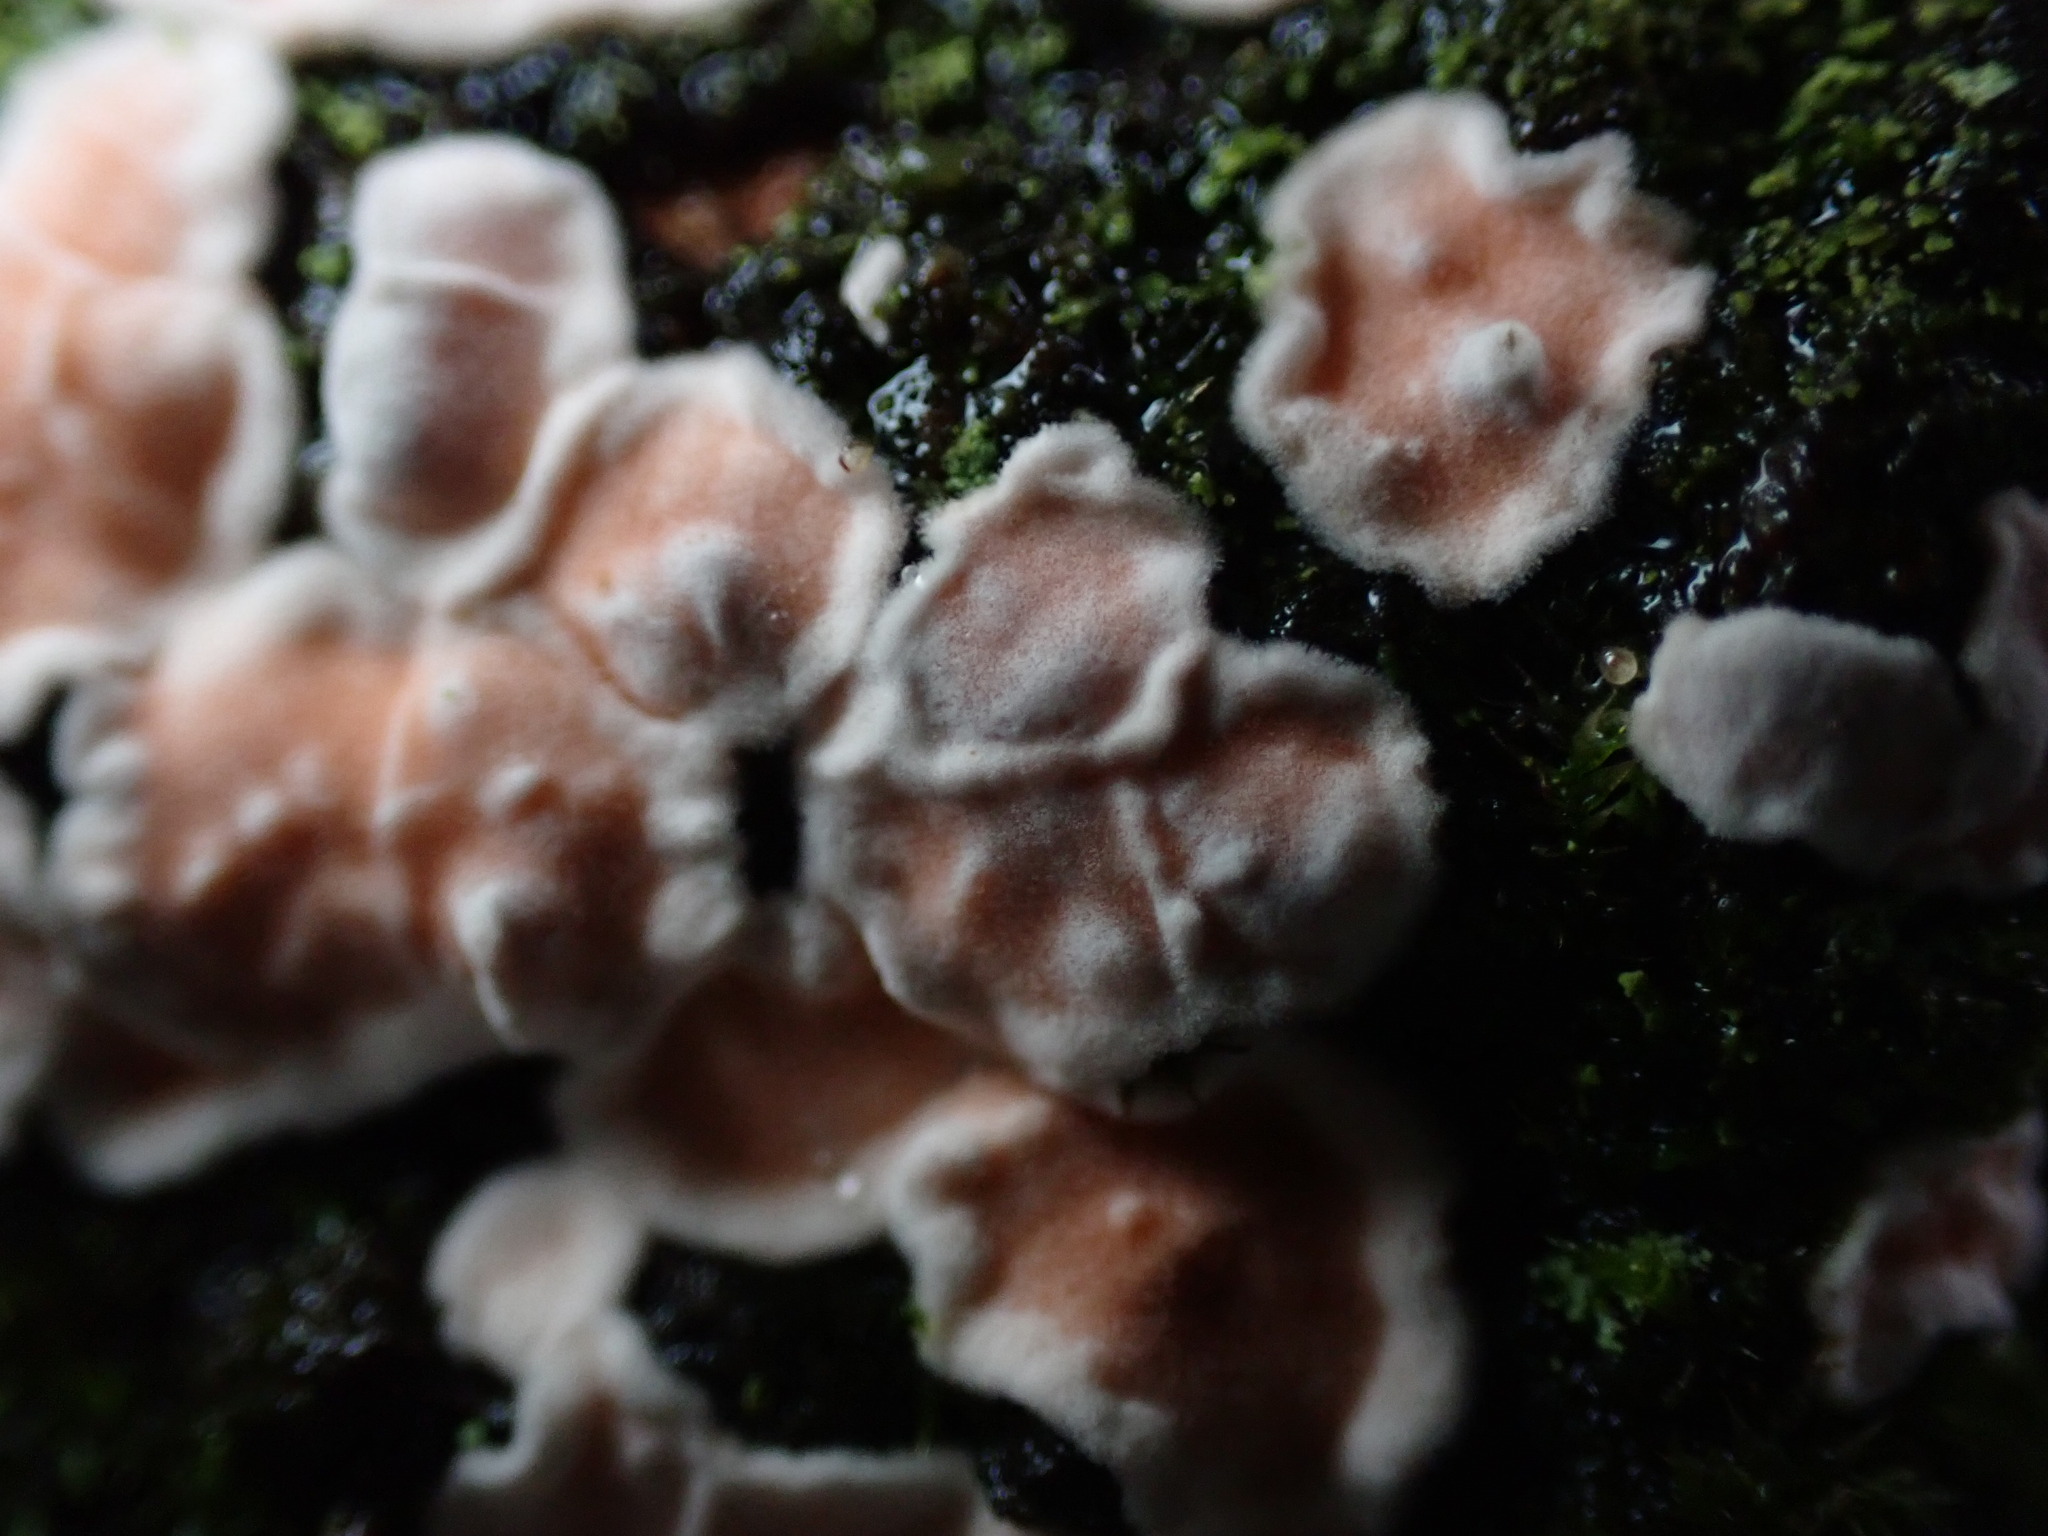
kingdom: Fungi
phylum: Basidiomycota
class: Agaricomycetes
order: Russulales
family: Stereaceae
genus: Gloeosoma
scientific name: Gloeosoma mirabile
